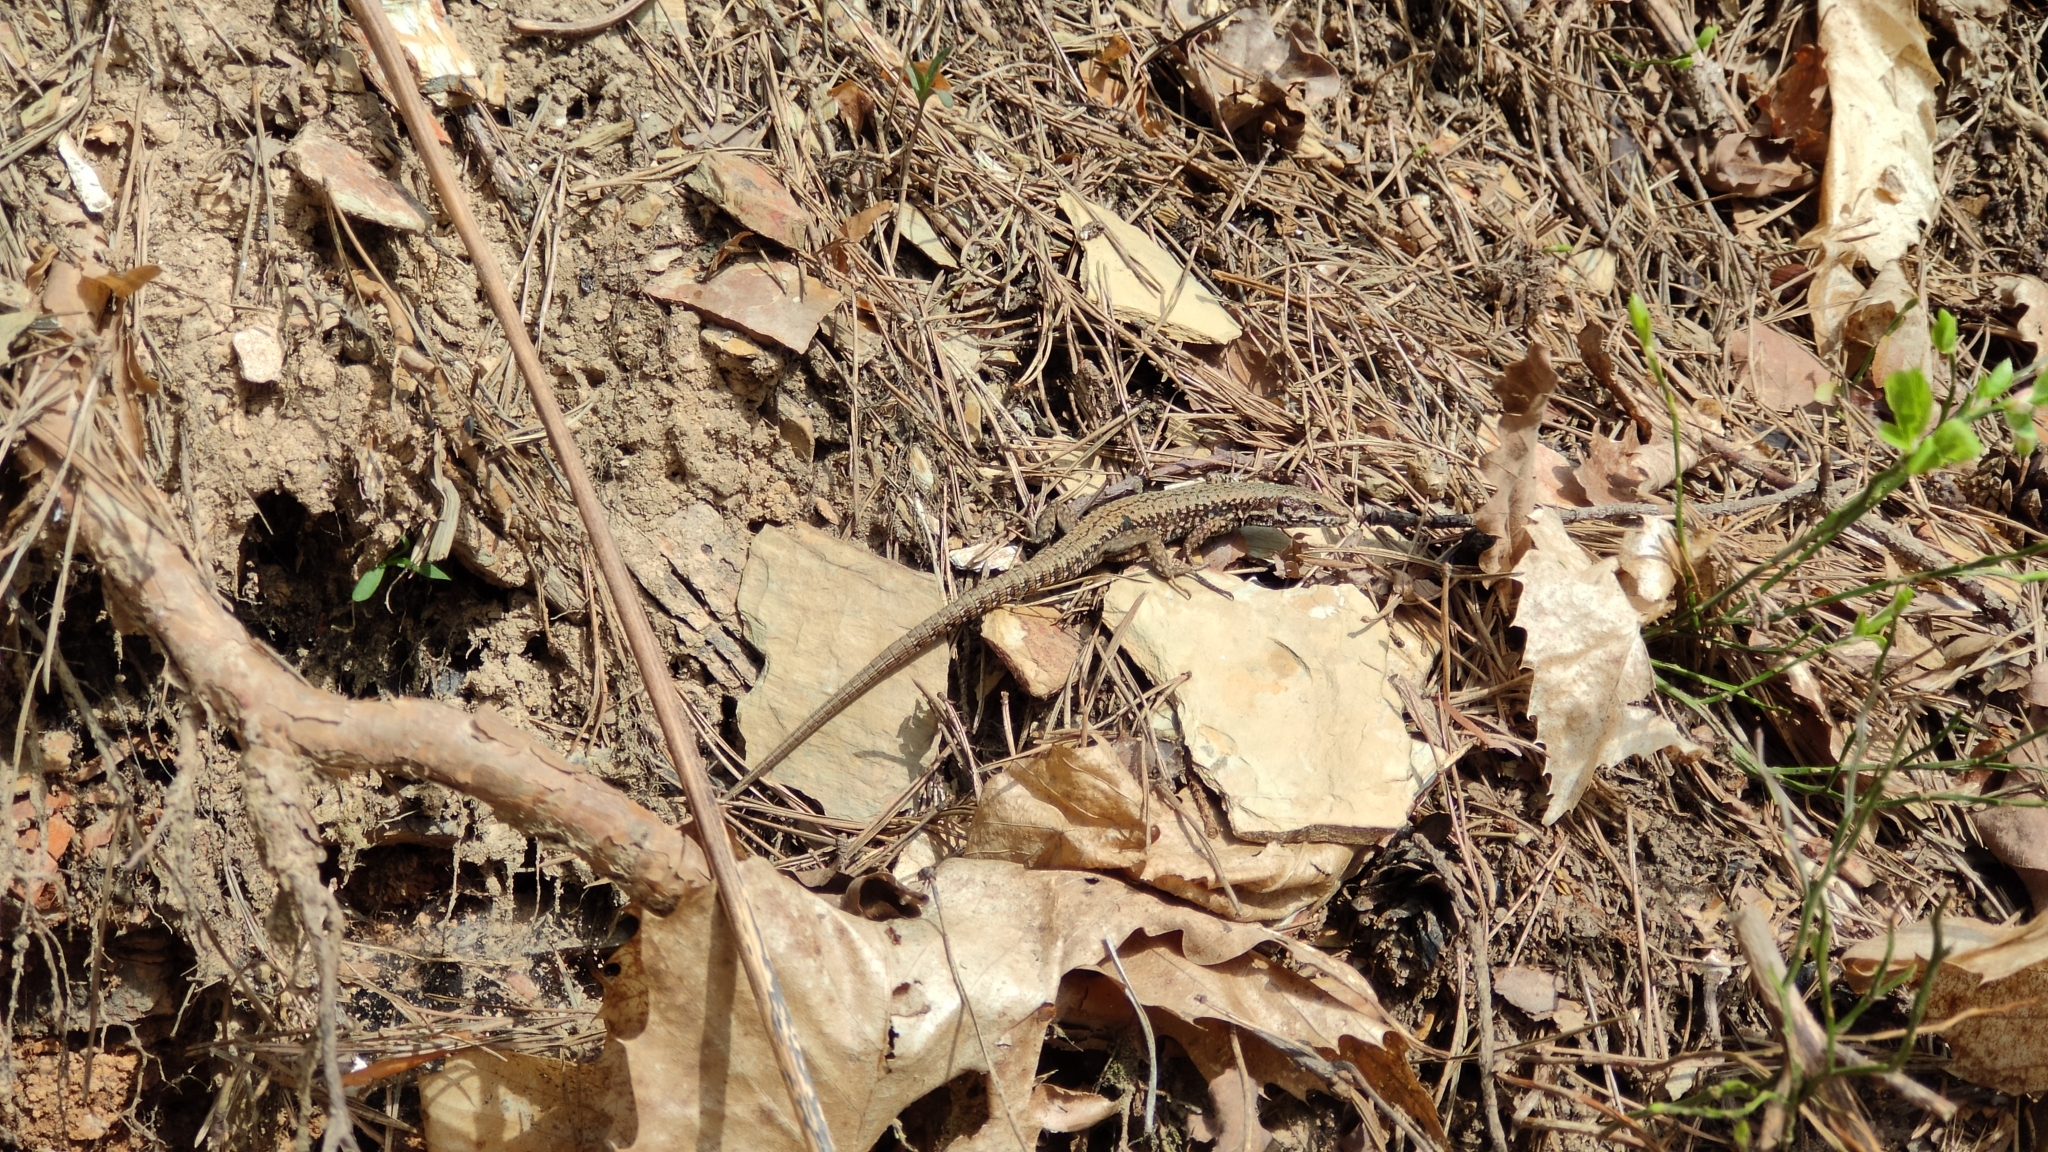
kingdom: Animalia
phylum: Chordata
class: Squamata
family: Lacertidae
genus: Podarcis
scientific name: Podarcis muralis
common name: Common wall lizard
